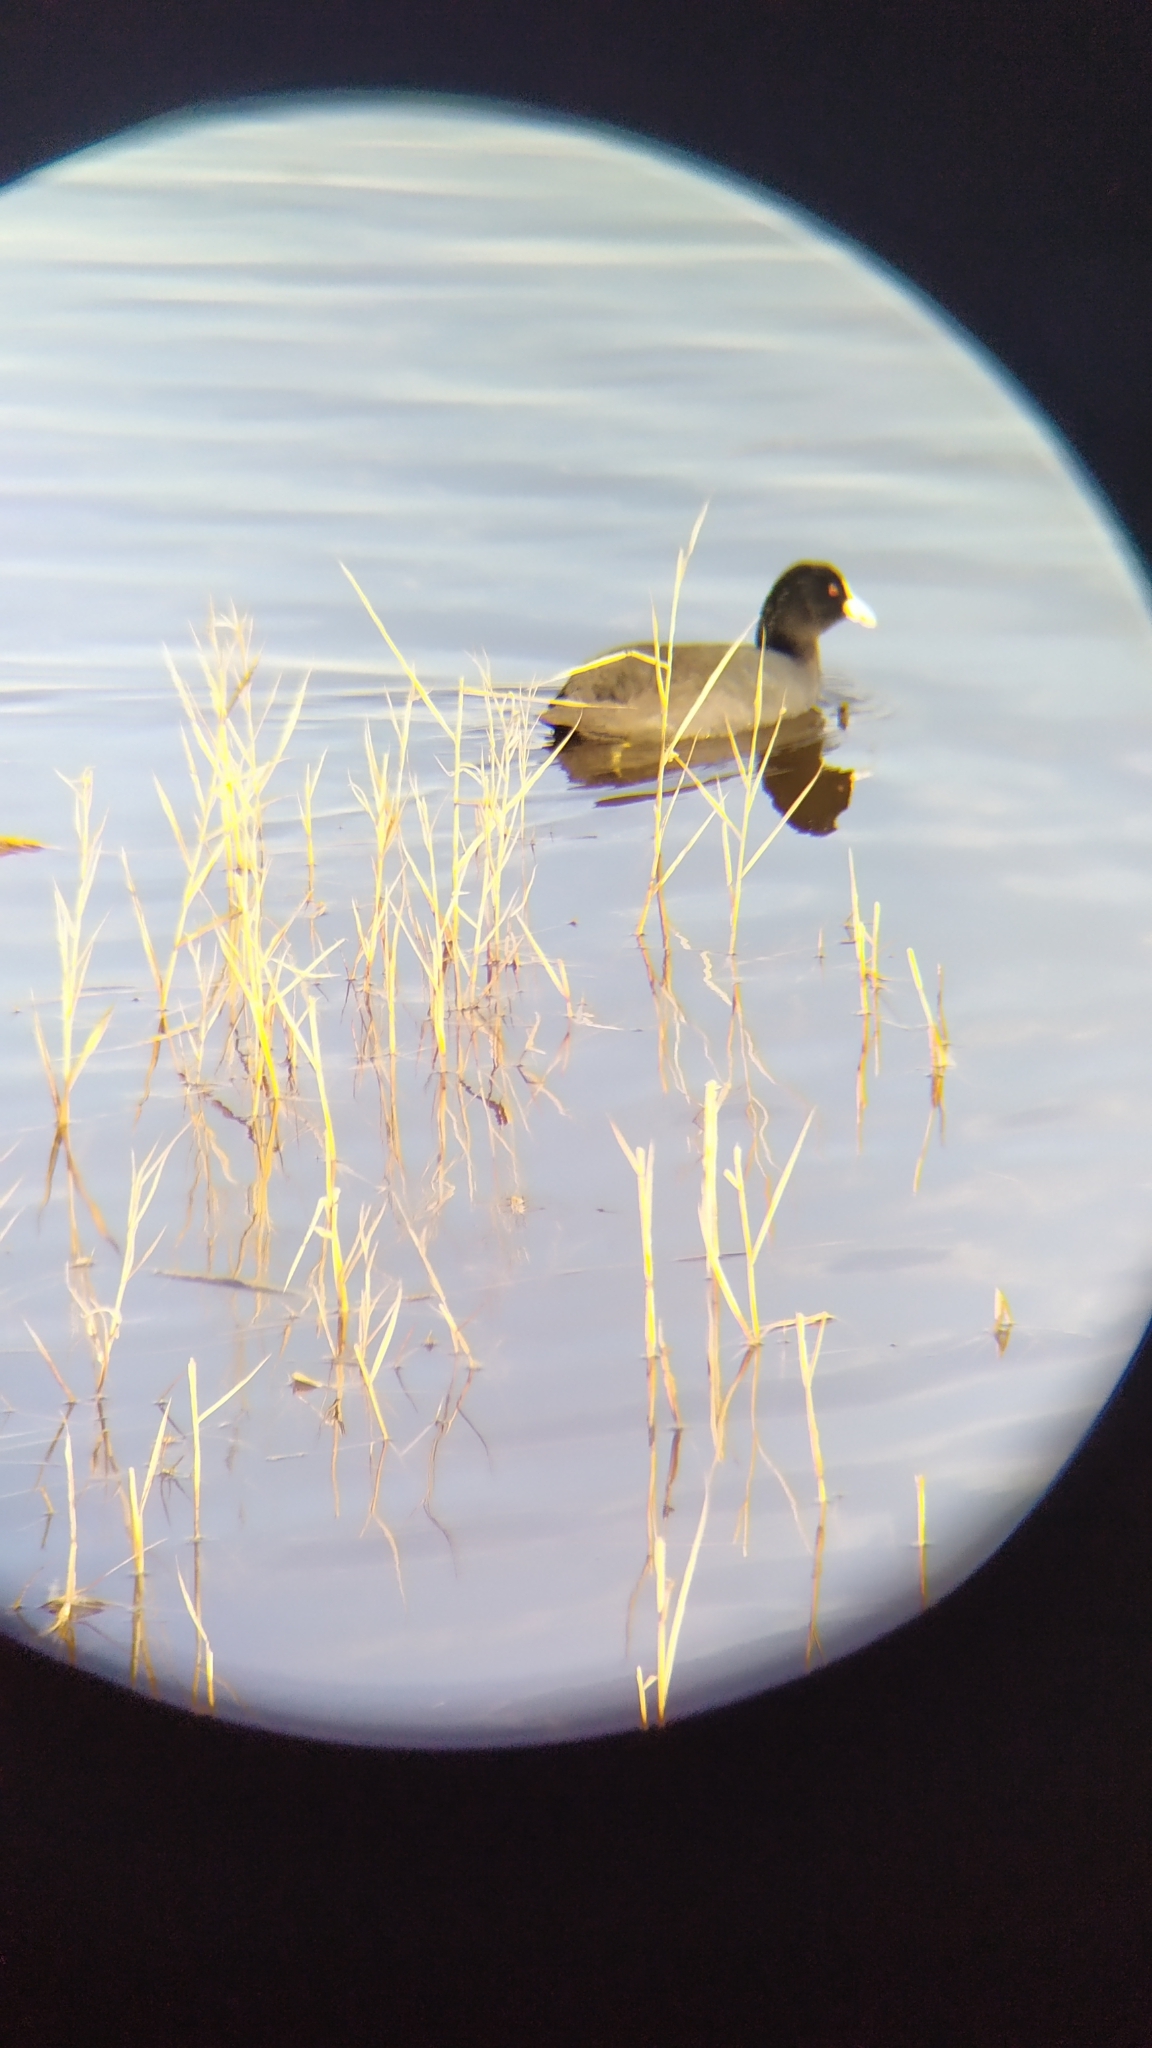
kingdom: Animalia
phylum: Chordata
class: Aves
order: Gruiformes
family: Rallidae
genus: Fulica
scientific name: Fulica atra
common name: Eurasian coot
